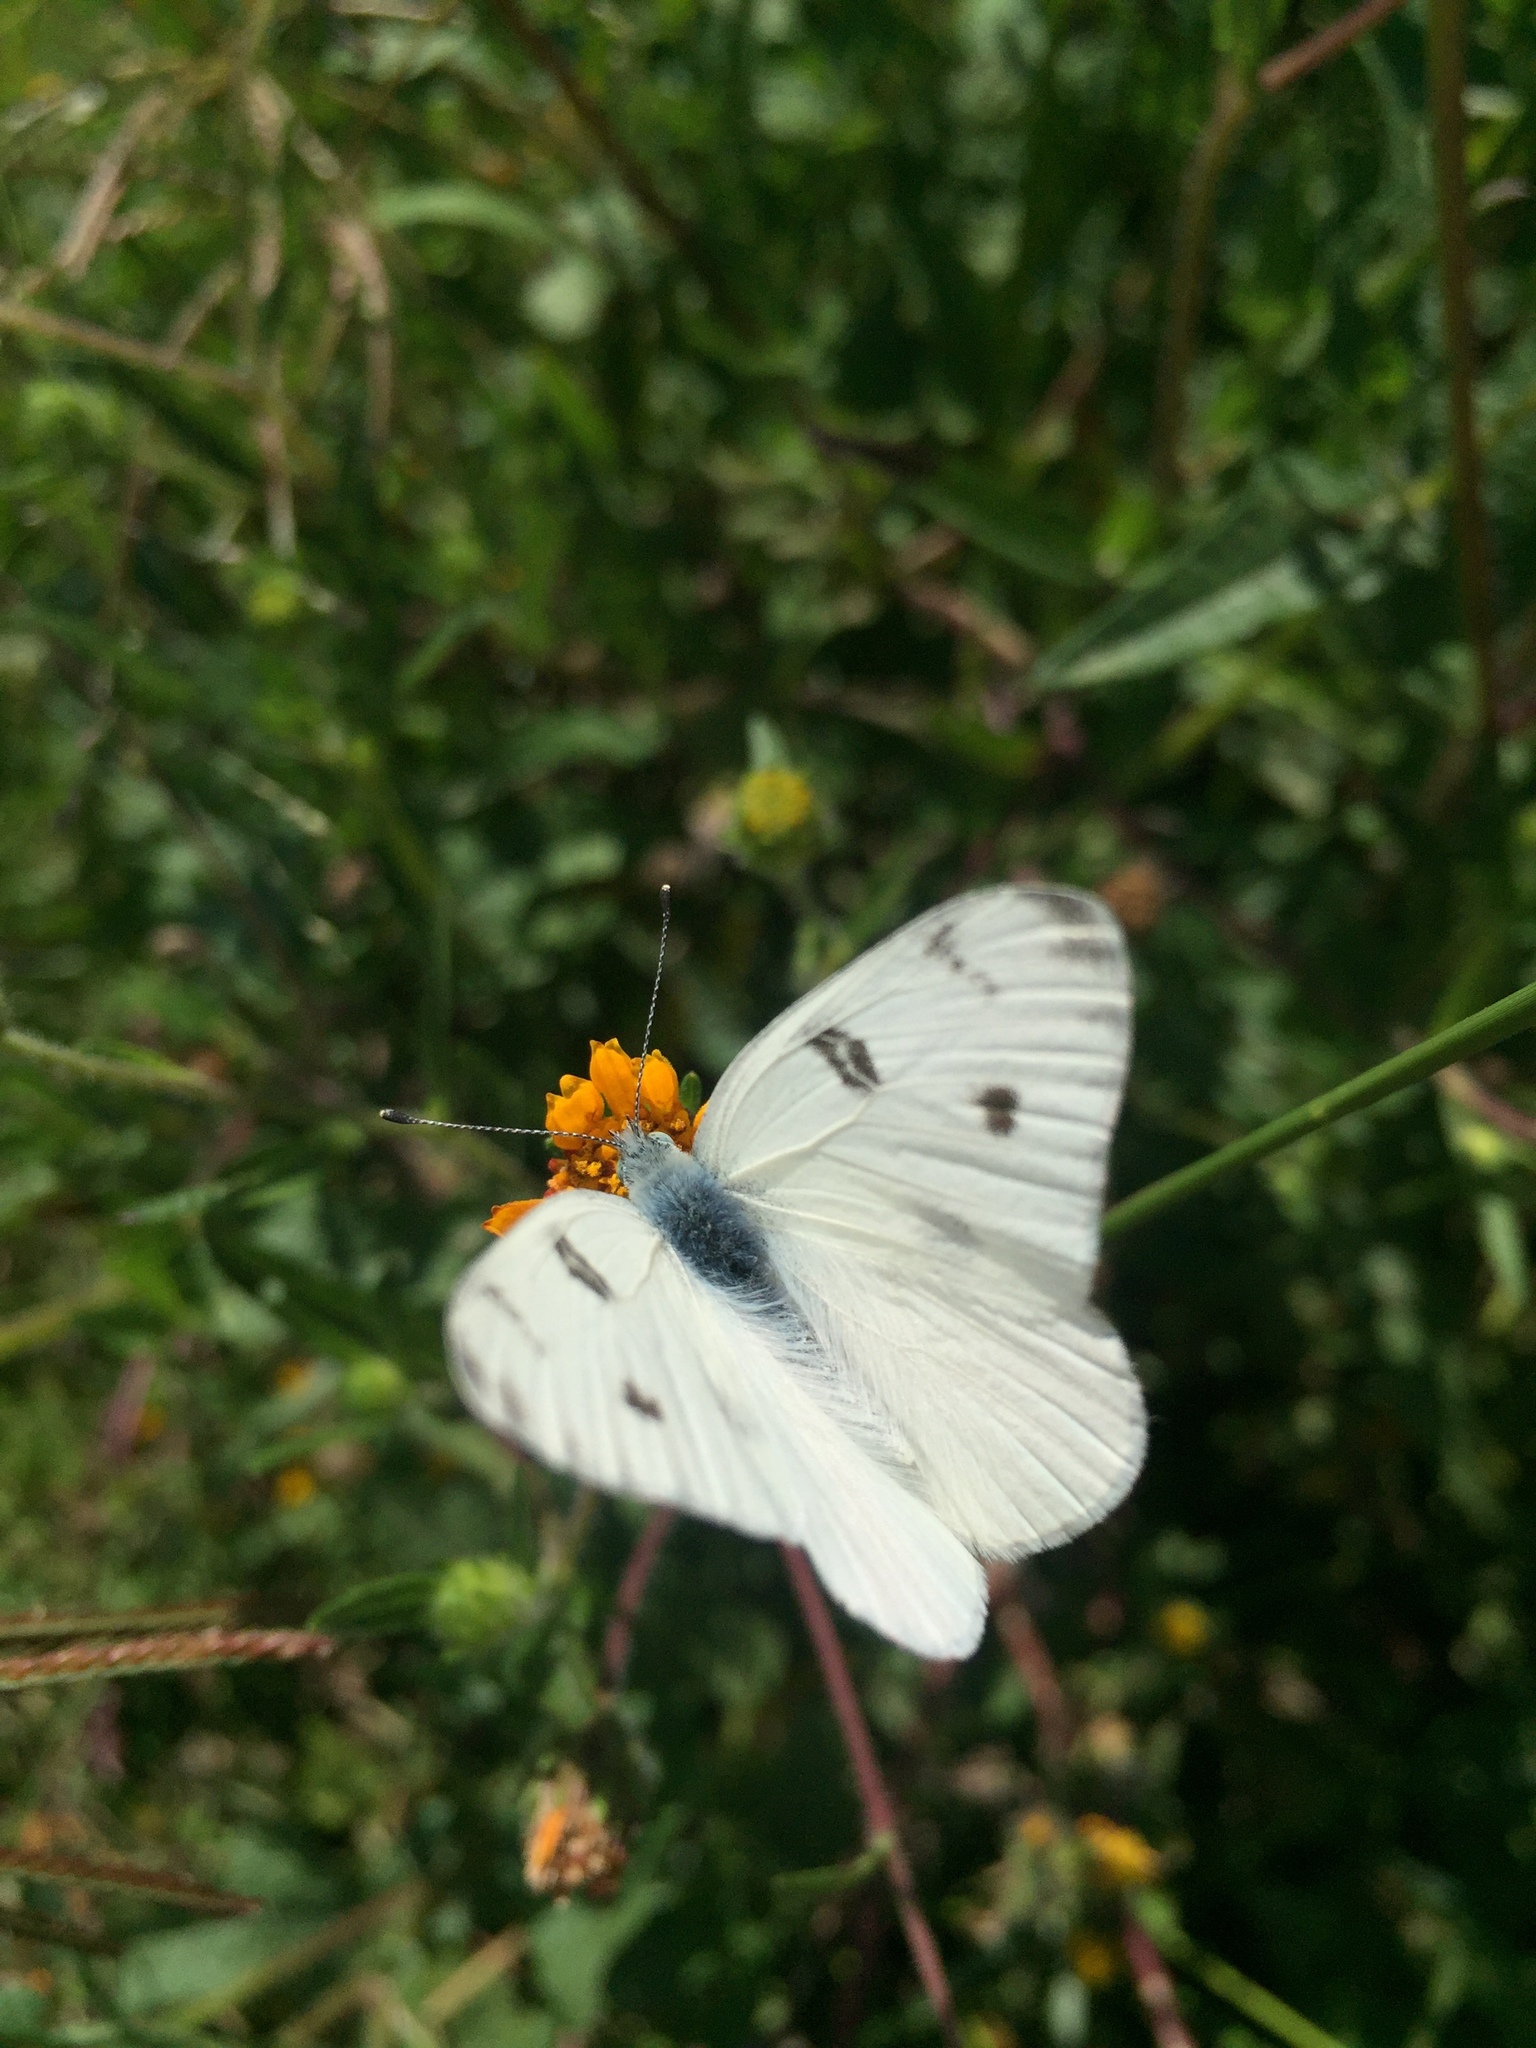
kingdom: Animalia
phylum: Arthropoda
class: Insecta
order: Lepidoptera
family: Pieridae
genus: Pontia
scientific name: Pontia protodice
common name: Checkered white
